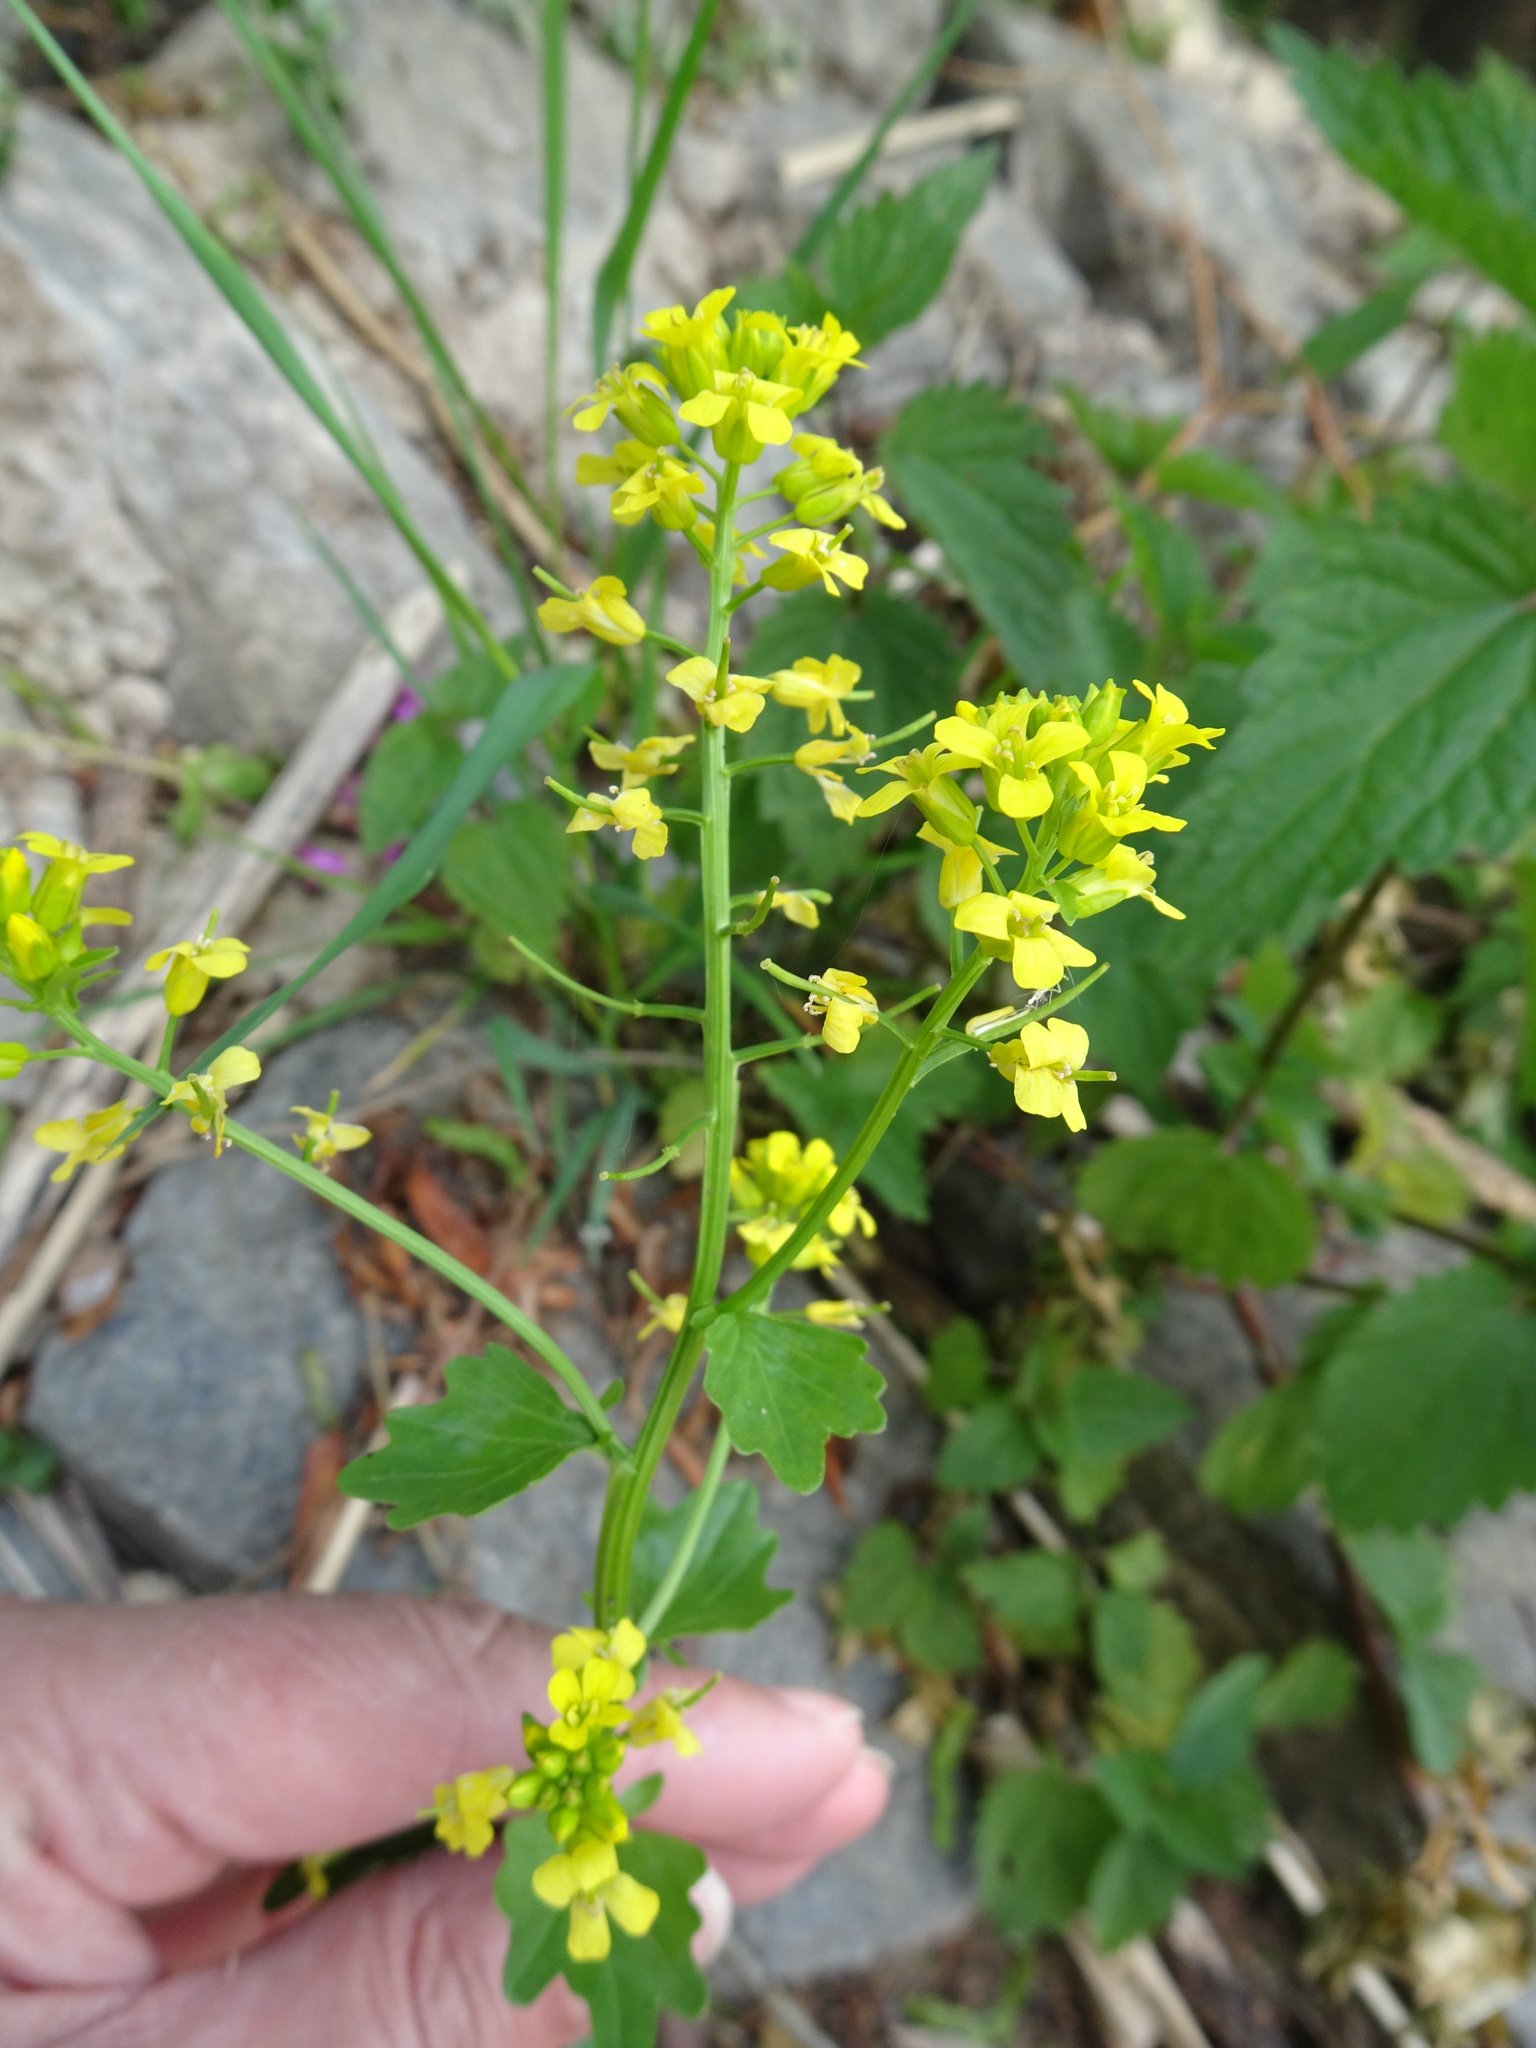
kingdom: Plantae
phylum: Tracheophyta
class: Magnoliopsida
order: Brassicales
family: Brassicaceae
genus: Barbarea
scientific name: Barbarea vulgaris
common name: Cressy-greens
